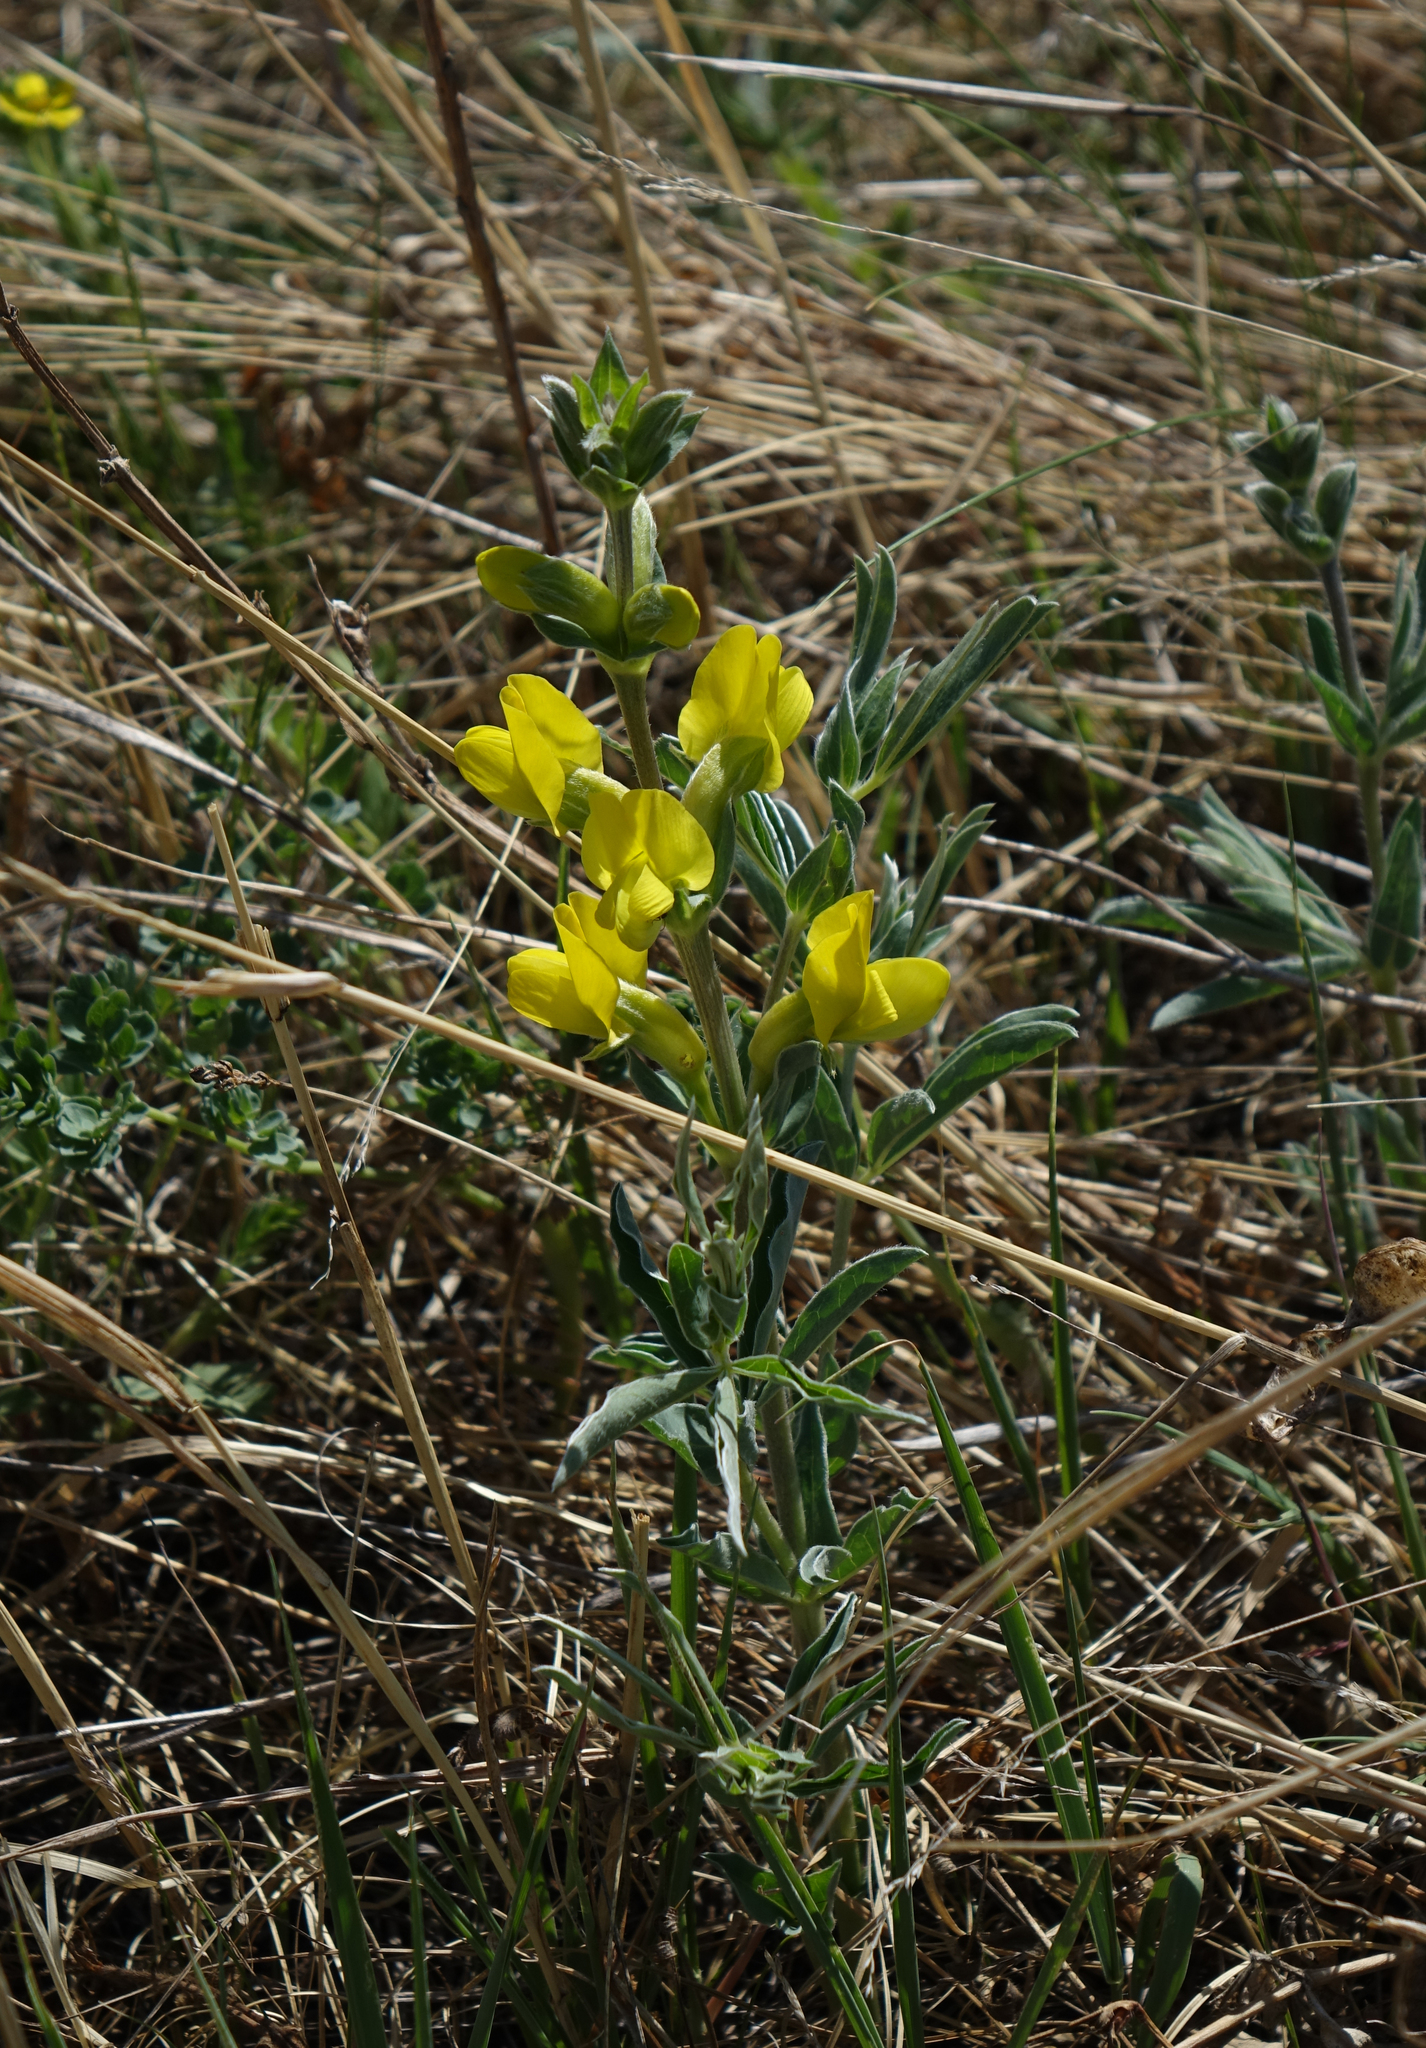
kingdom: Plantae
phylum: Tracheophyta
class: Magnoliopsida
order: Fabales
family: Fabaceae
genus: Thermopsis
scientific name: Thermopsis mongolica
